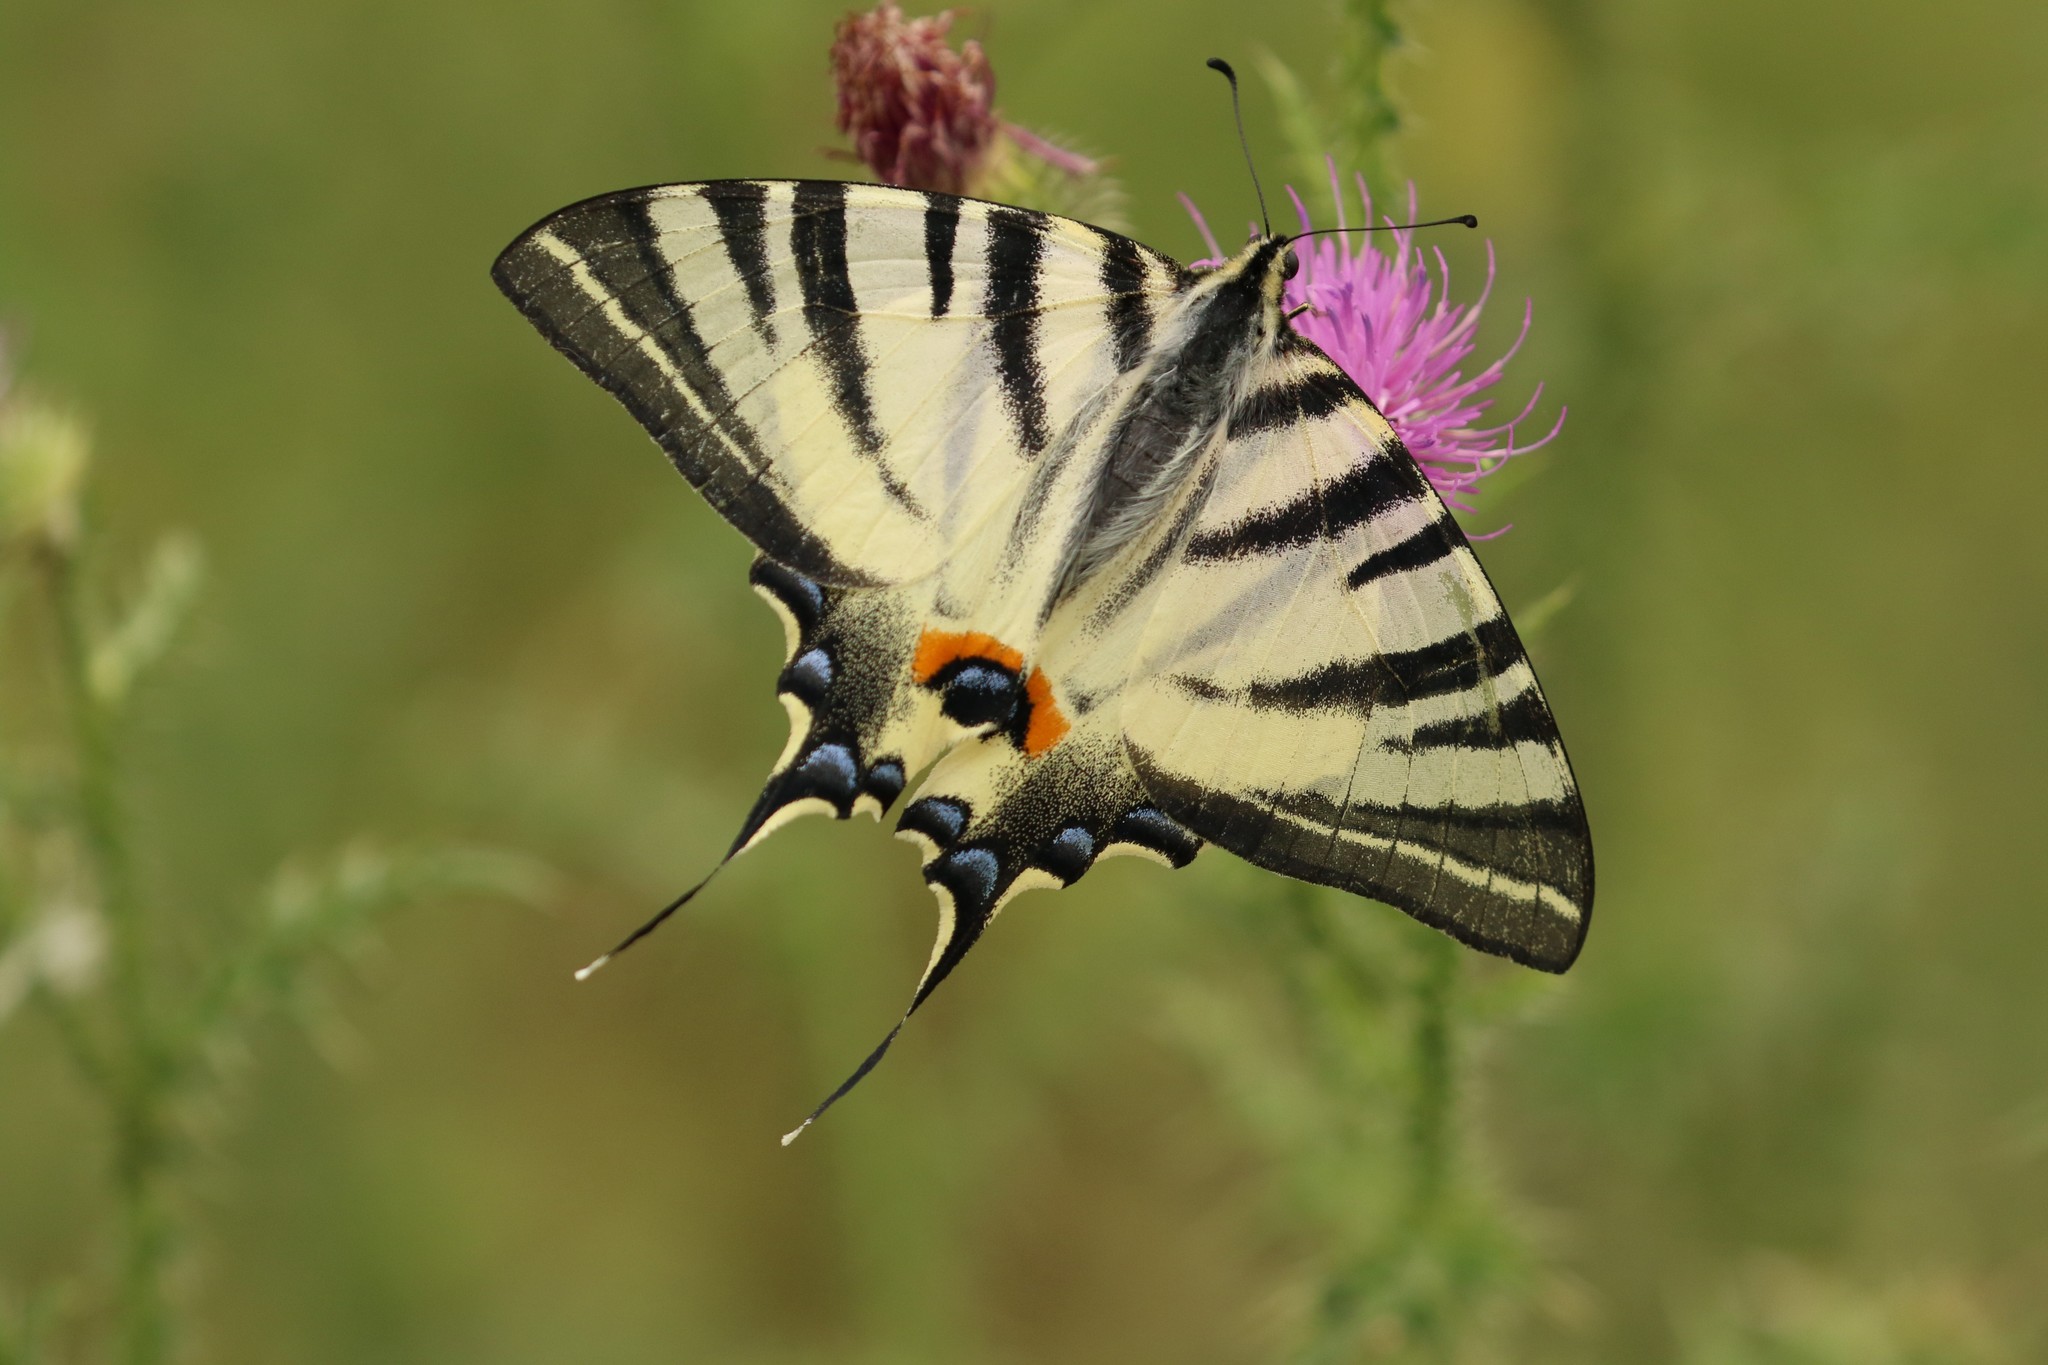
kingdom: Animalia
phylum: Arthropoda
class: Insecta
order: Lepidoptera
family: Papilionidae
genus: Iphiclides
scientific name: Iphiclides podalirius
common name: Scarce swallowtail
